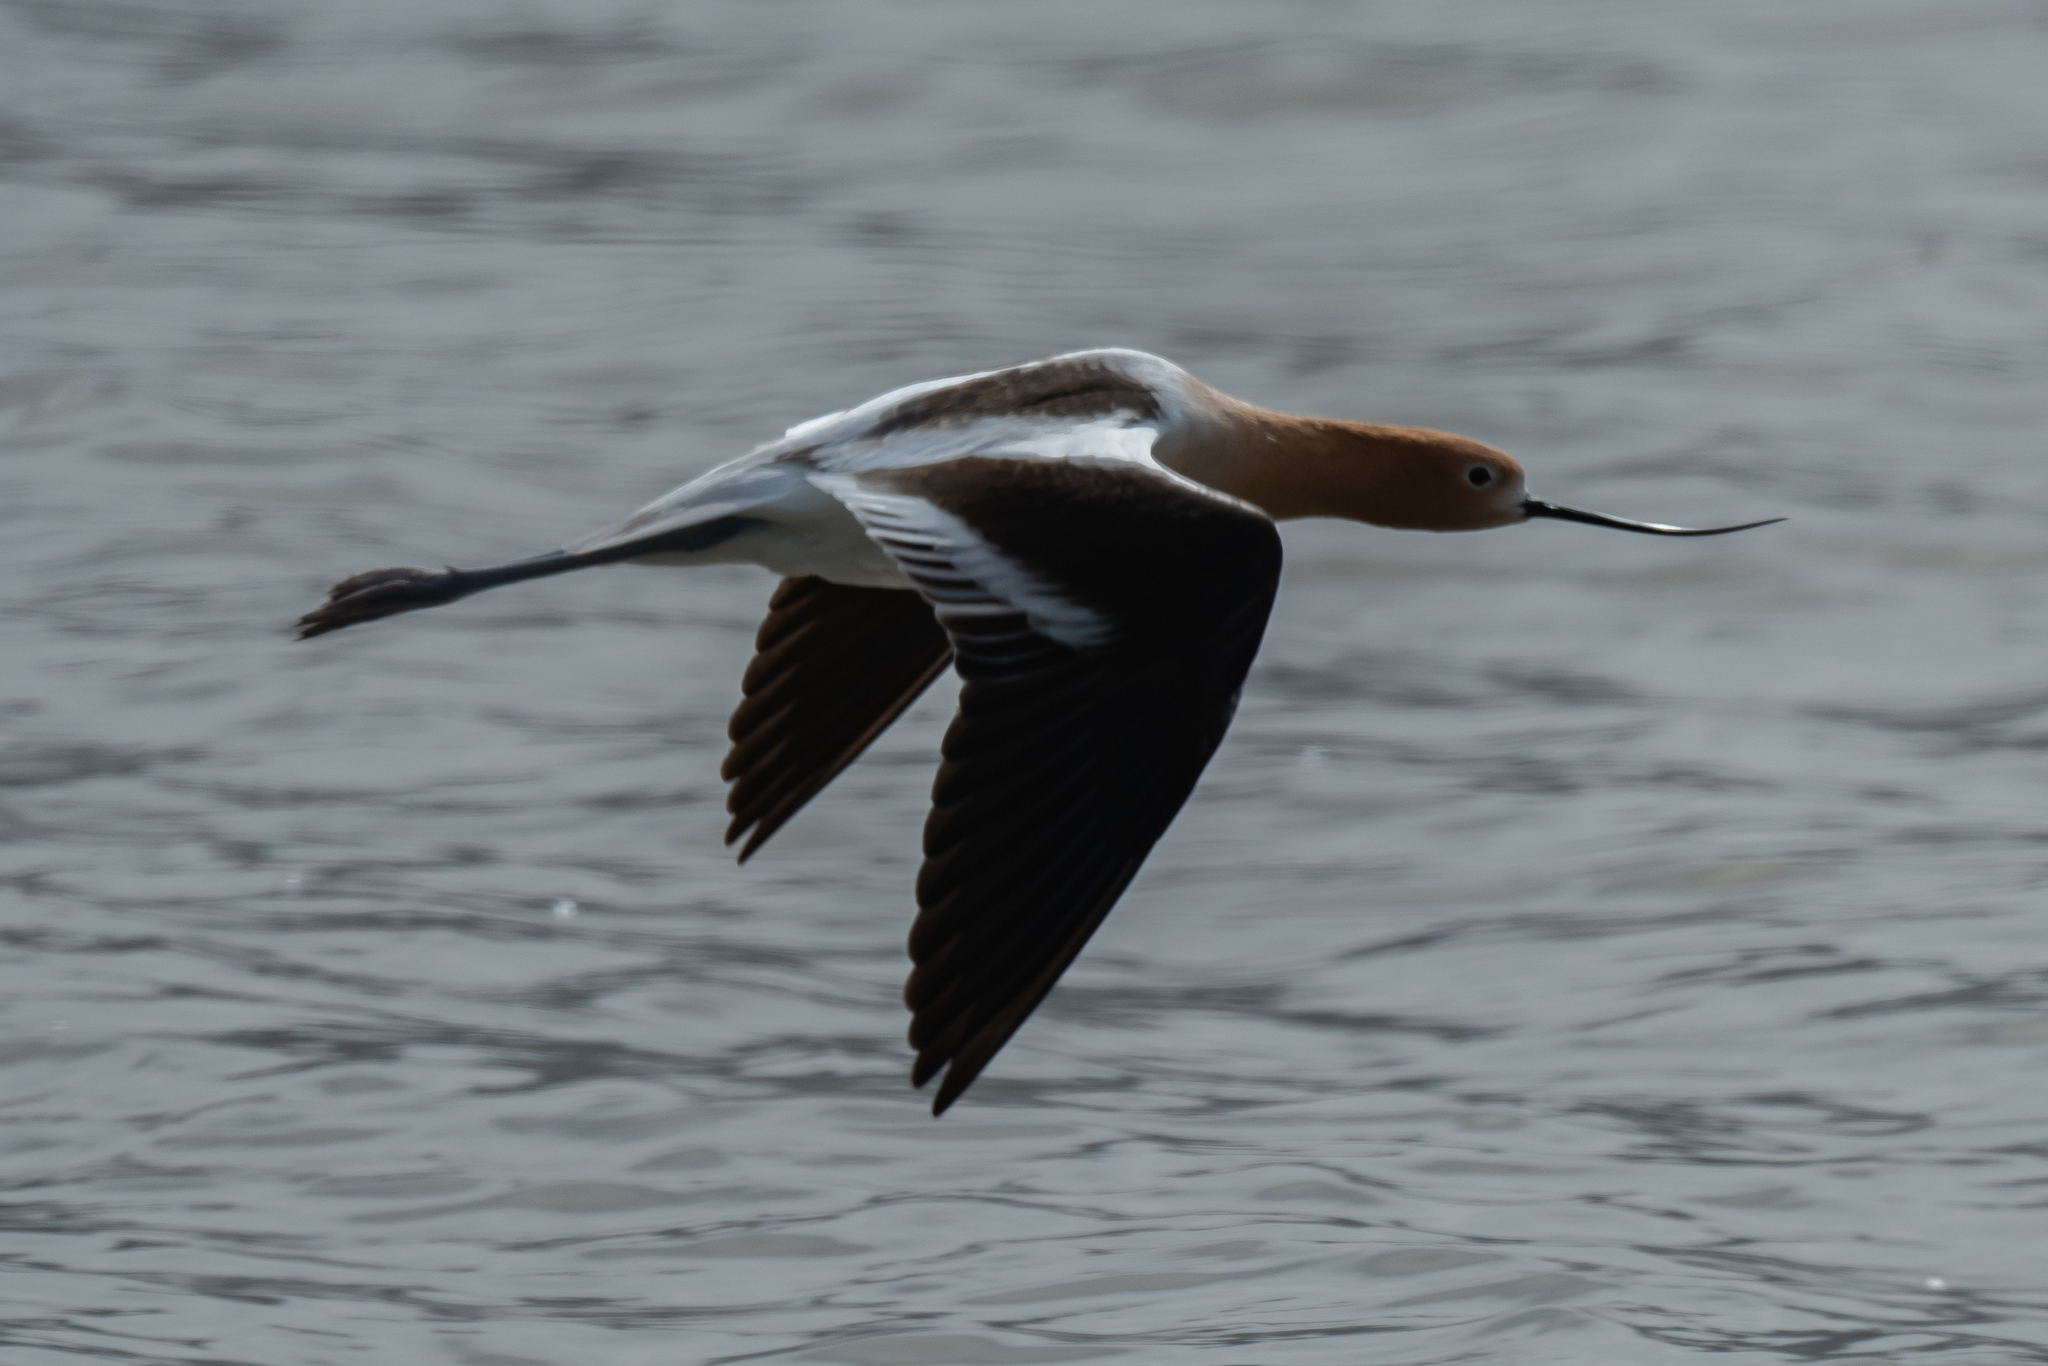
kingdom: Animalia
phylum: Chordata
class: Aves
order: Charadriiformes
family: Recurvirostridae
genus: Recurvirostra
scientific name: Recurvirostra americana
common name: American avocet
